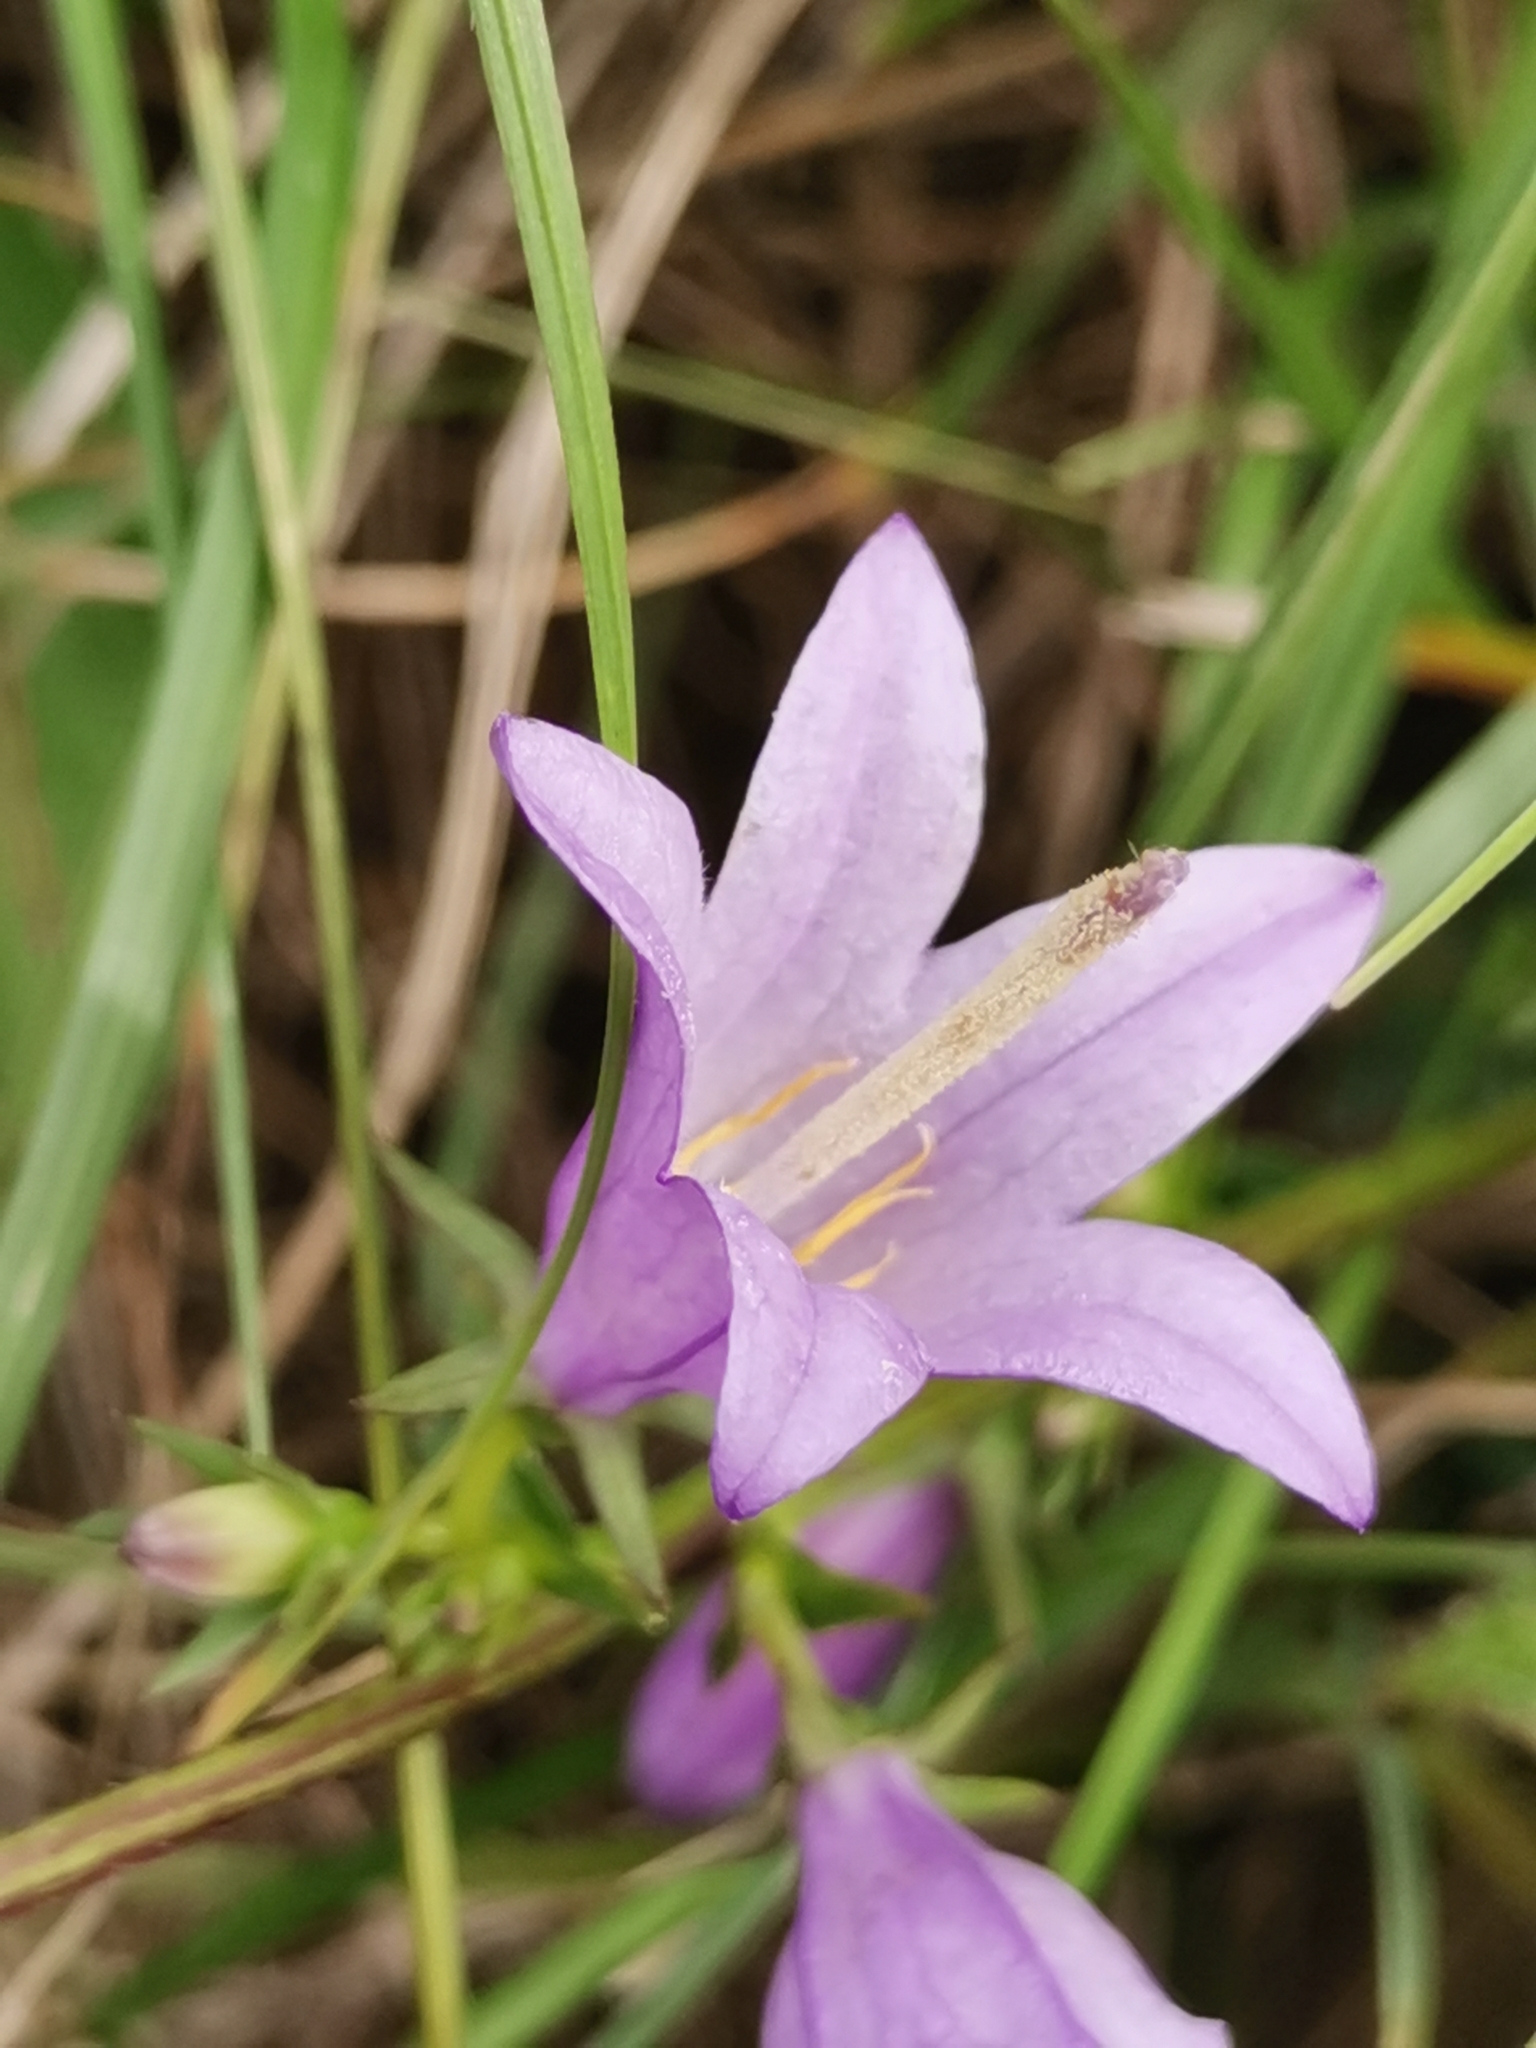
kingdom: Plantae
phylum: Tracheophyta
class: Magnoliopsida
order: Asterales
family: Campanulaceae
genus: Campanula
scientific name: Campanula bononiensis
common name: Pale bellflower
